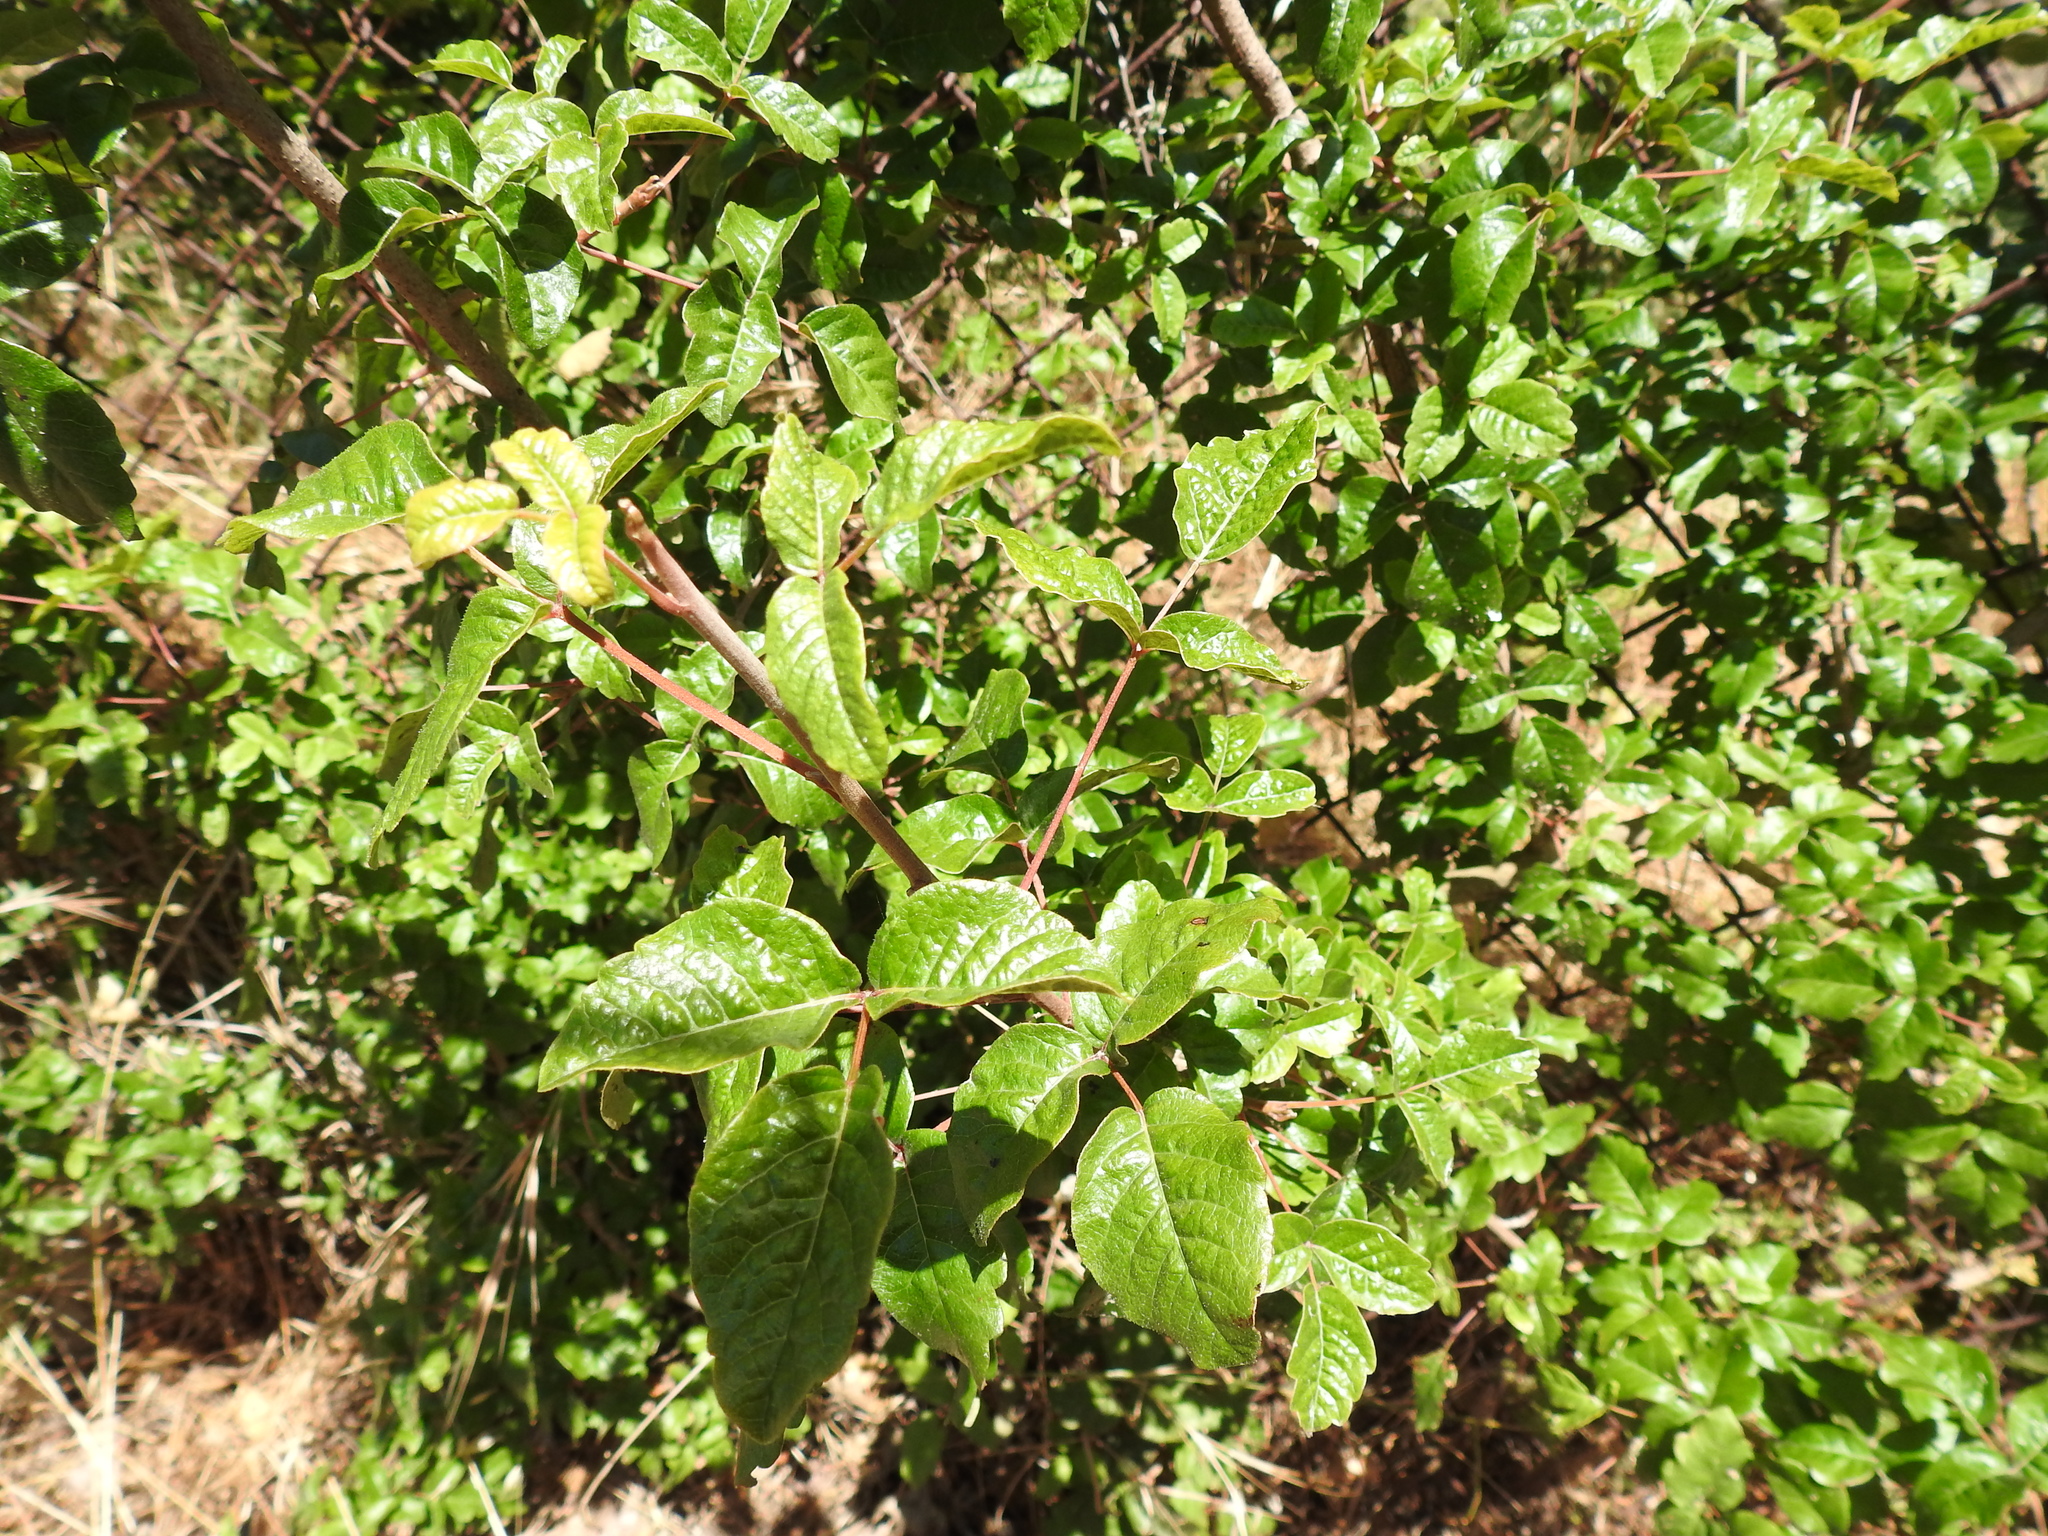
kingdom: Plantae
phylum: Tracheophyta
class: Magnoliopsida
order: Sapindales
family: Anacardiaceae
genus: Toxicodendron
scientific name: Toxicodendron diversilobum
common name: Pacific poison-oak
